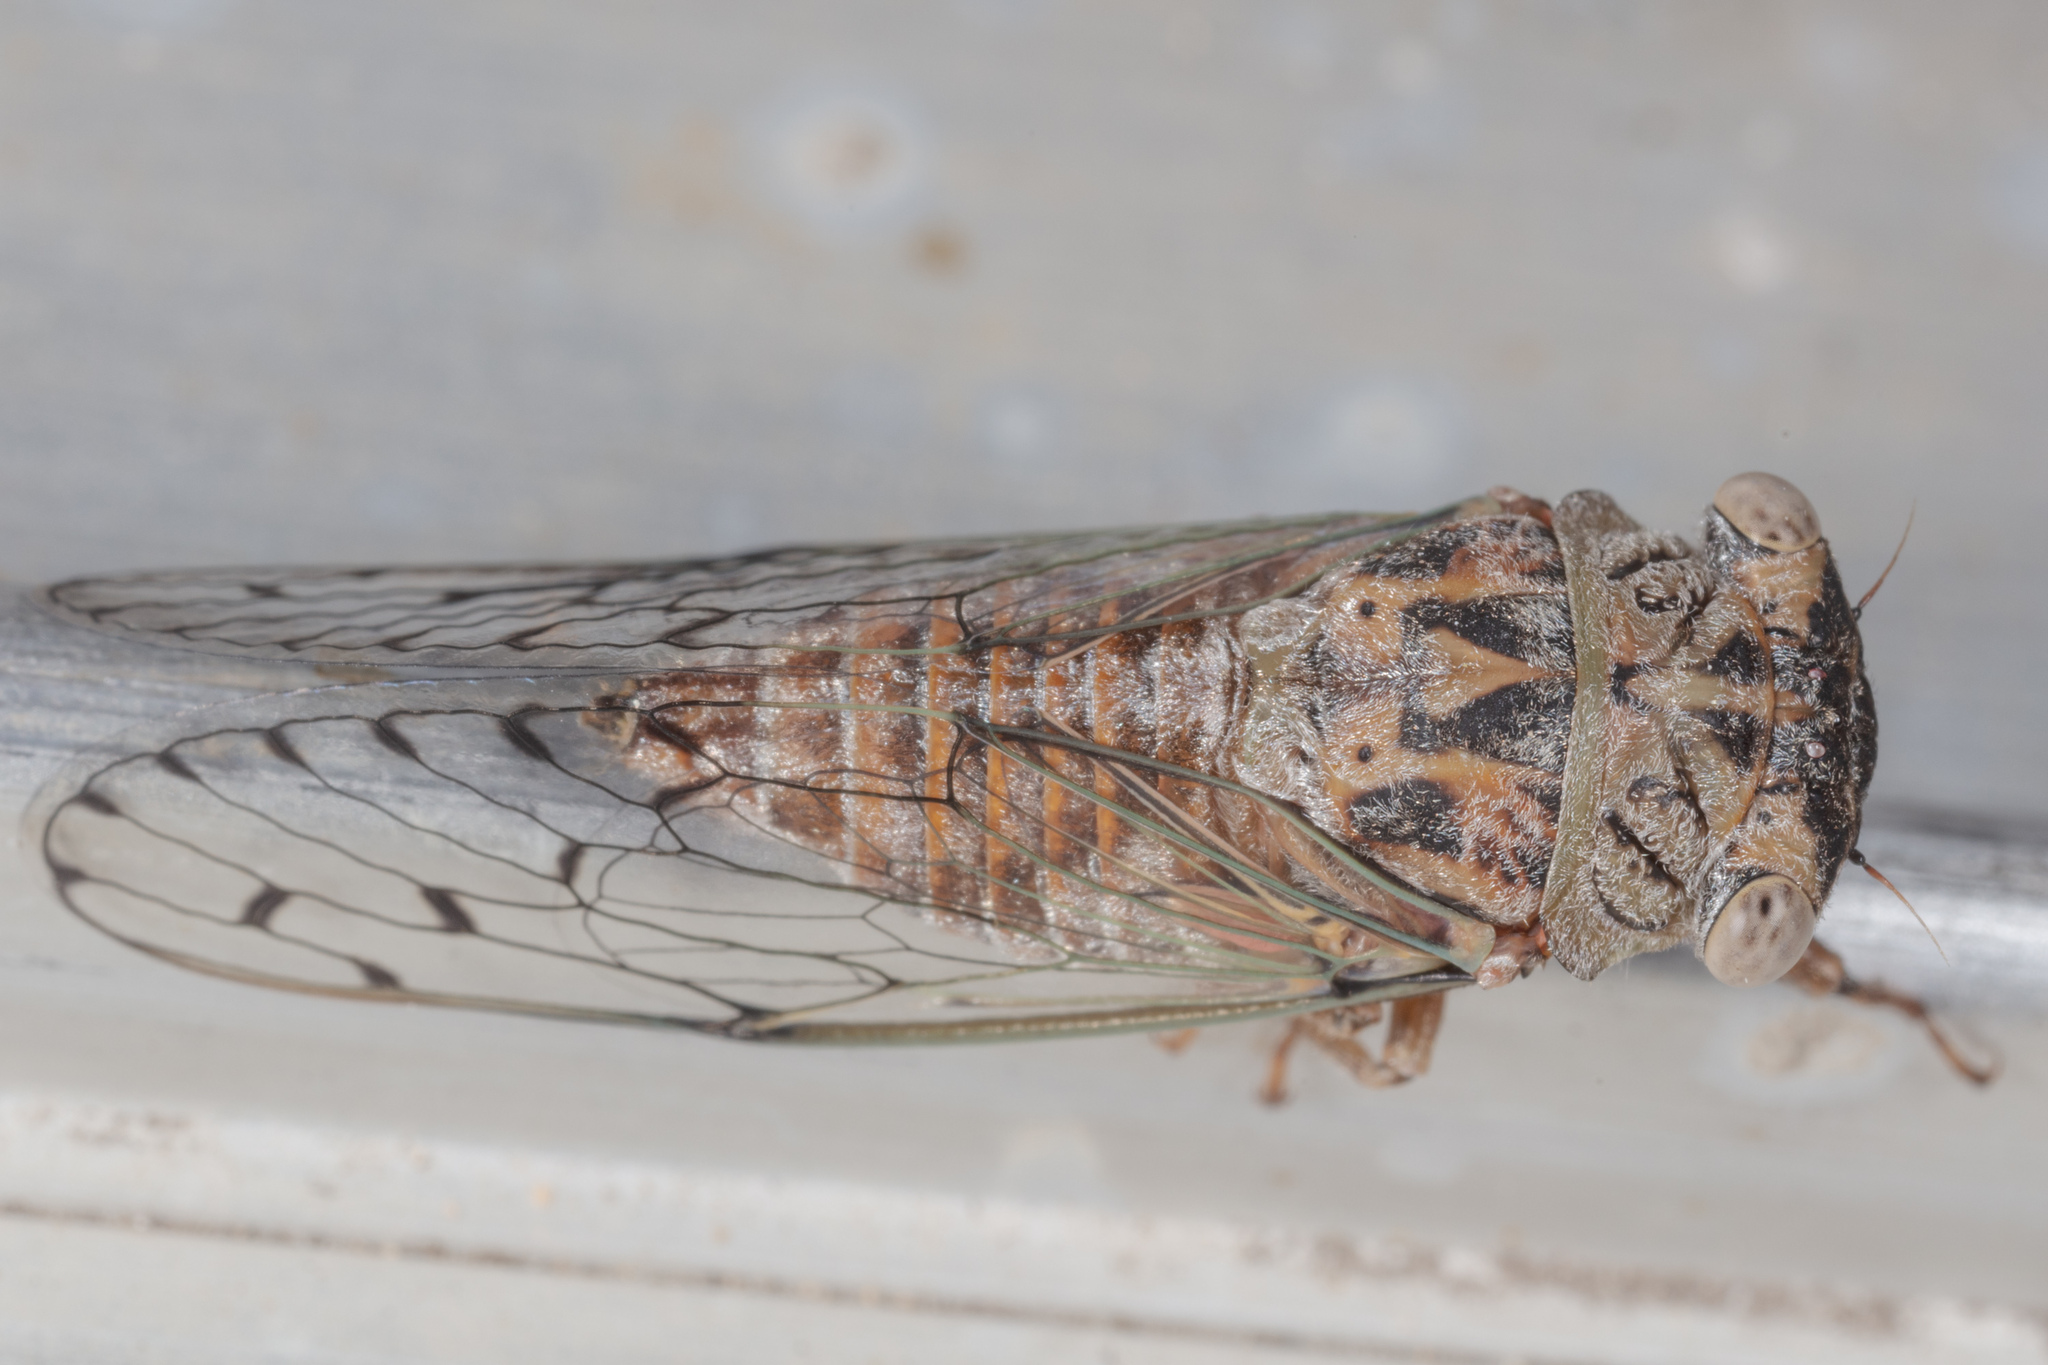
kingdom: Animalia
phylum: Arthropoda
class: Insecta
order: Hemiptera
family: Cicadidae
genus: Pacarina
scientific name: Pacarina puella
